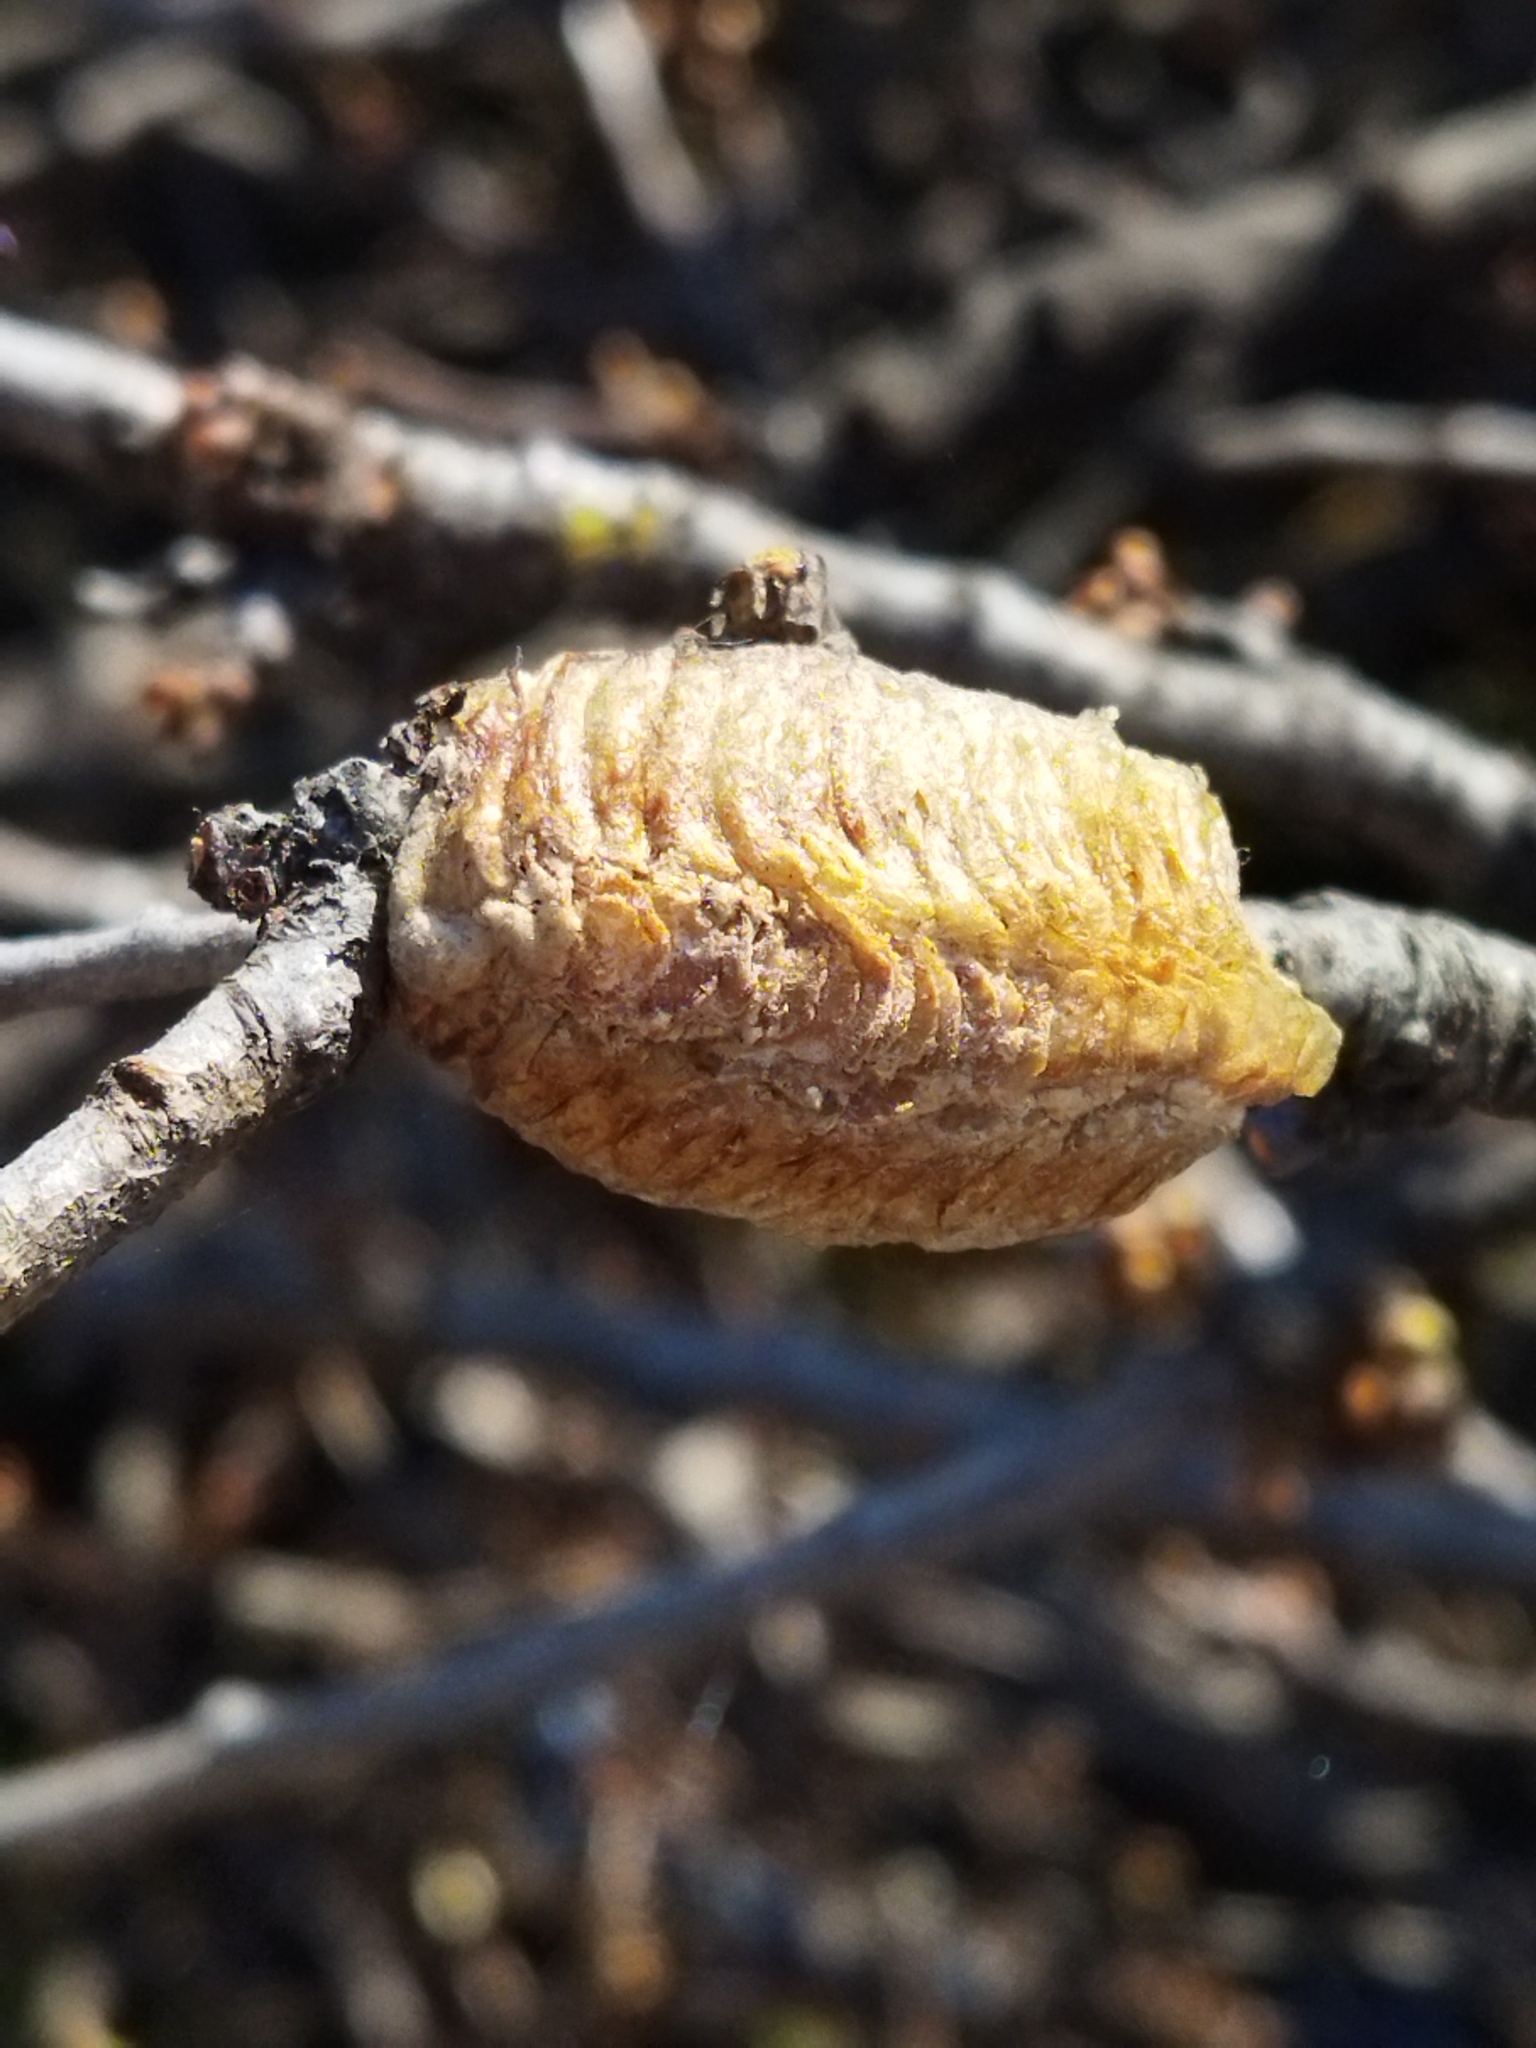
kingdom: Animalia
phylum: Arthropoda
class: Insecta
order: Mantodea
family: Mantidae
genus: Hierodula
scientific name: Hierodula transcaucasica
